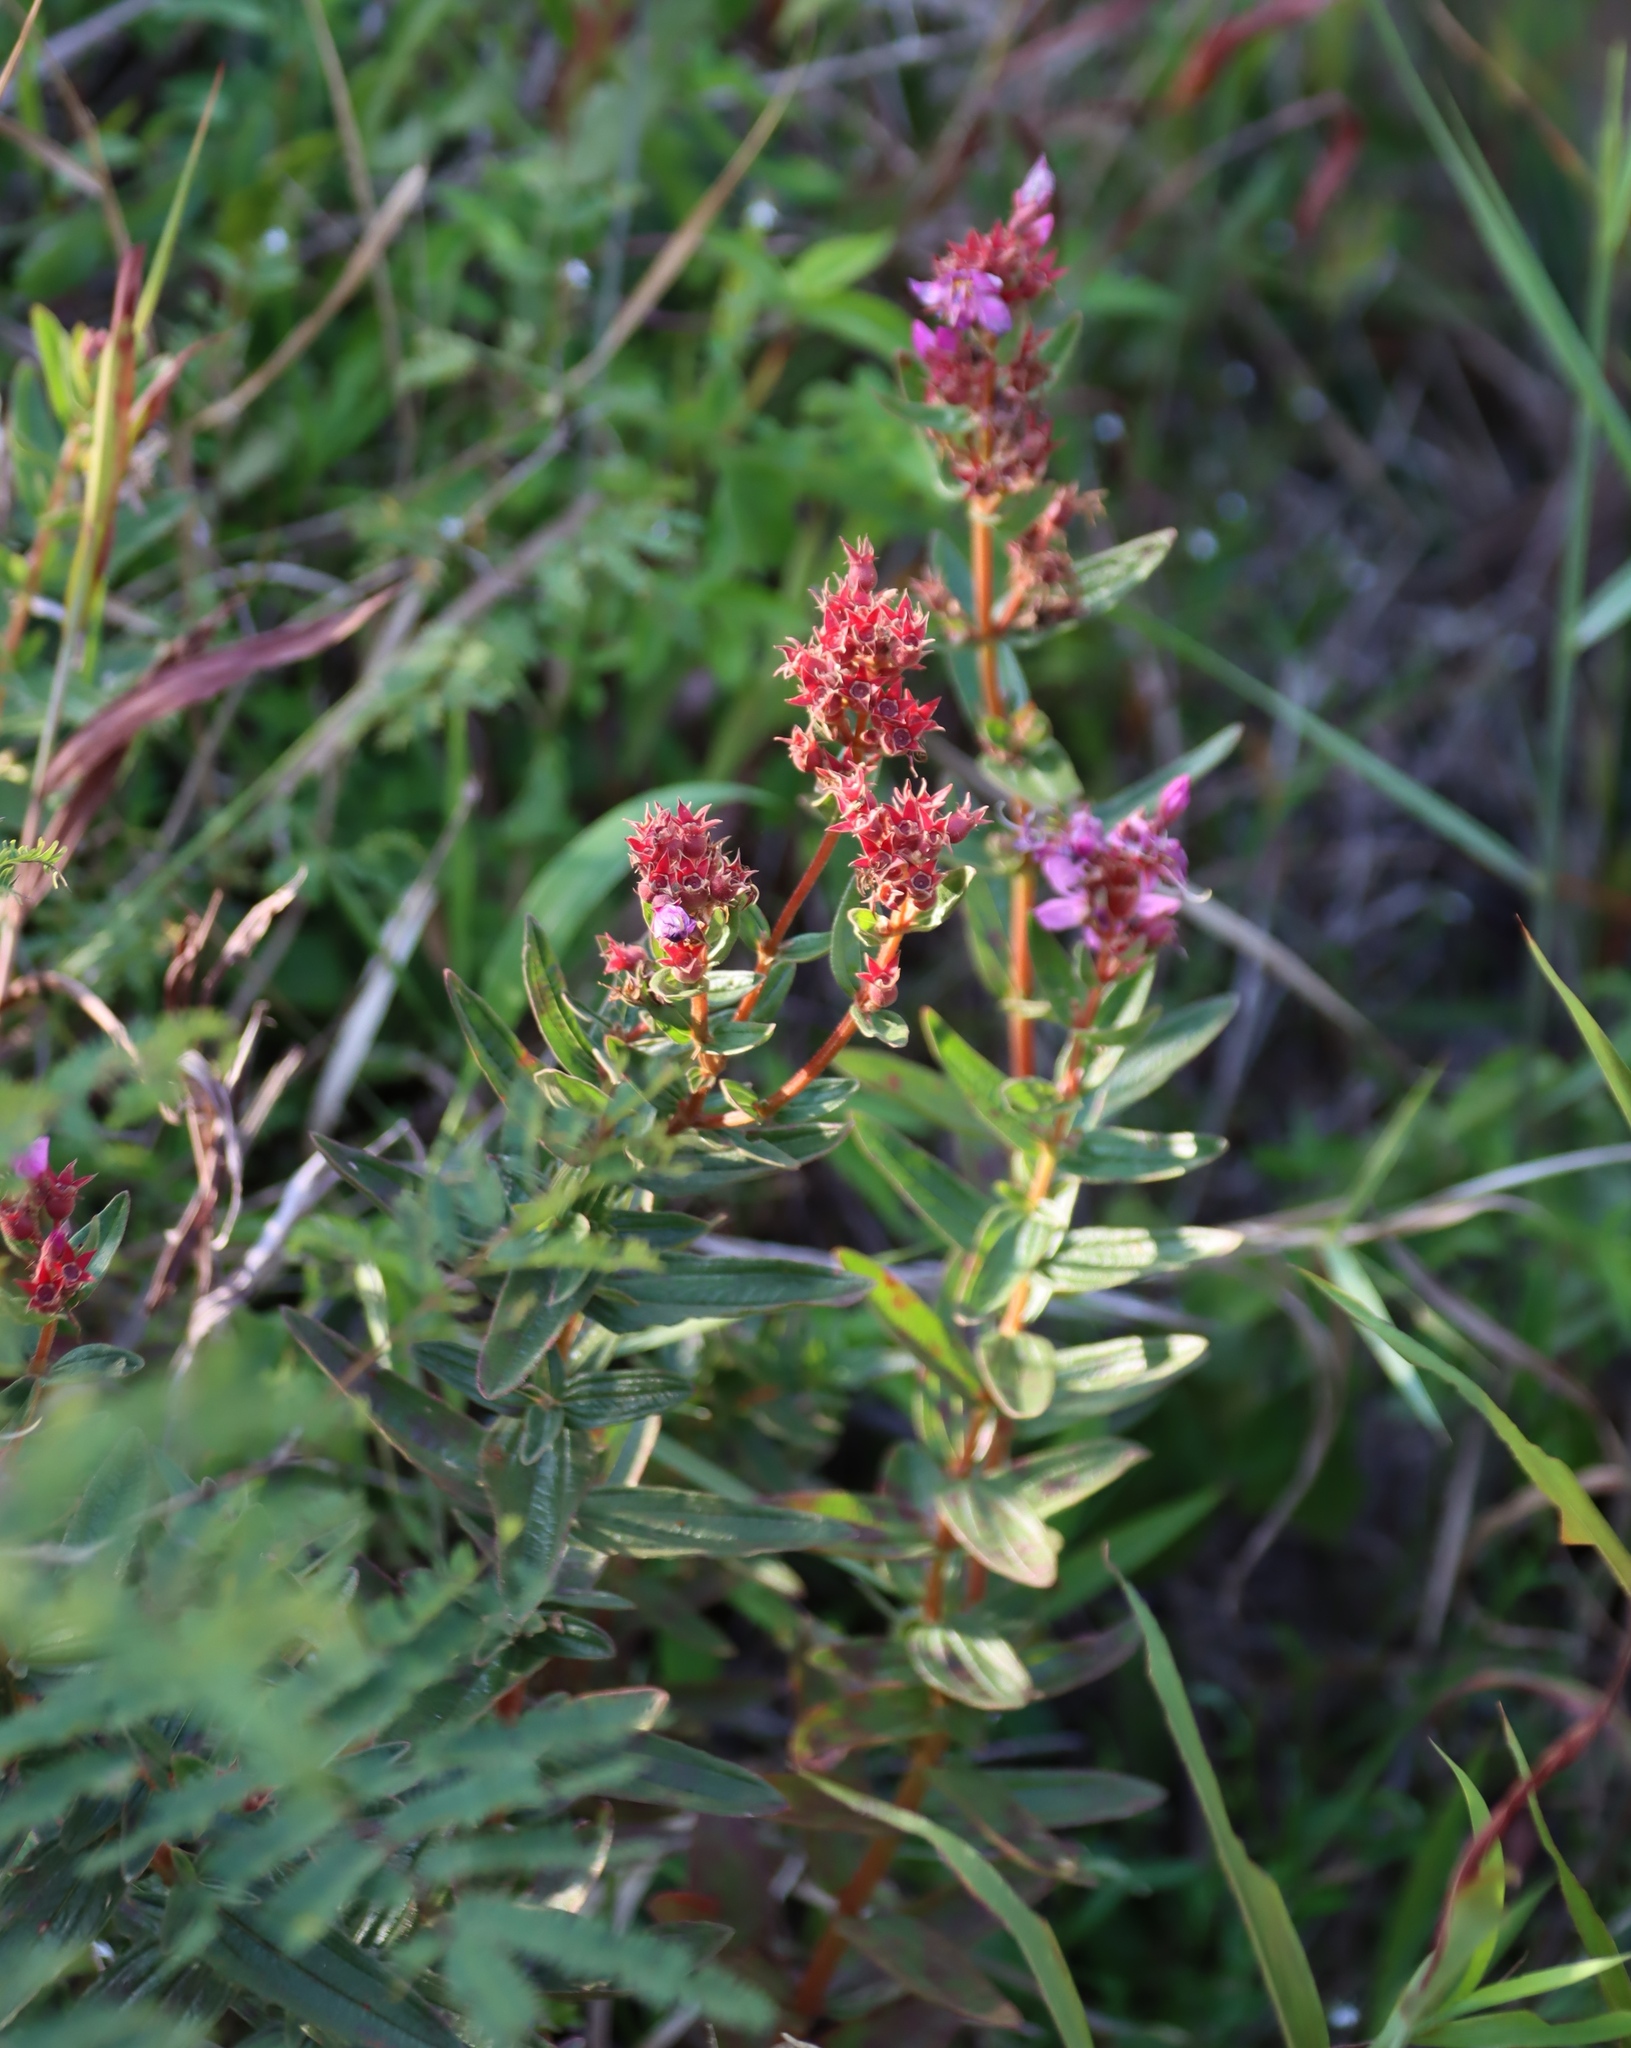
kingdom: Plantae
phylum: Tracheophyta
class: Magnoliopsida
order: Myrtales
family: Melastomataceae
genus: Argyrella
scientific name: Argyrella canescens
